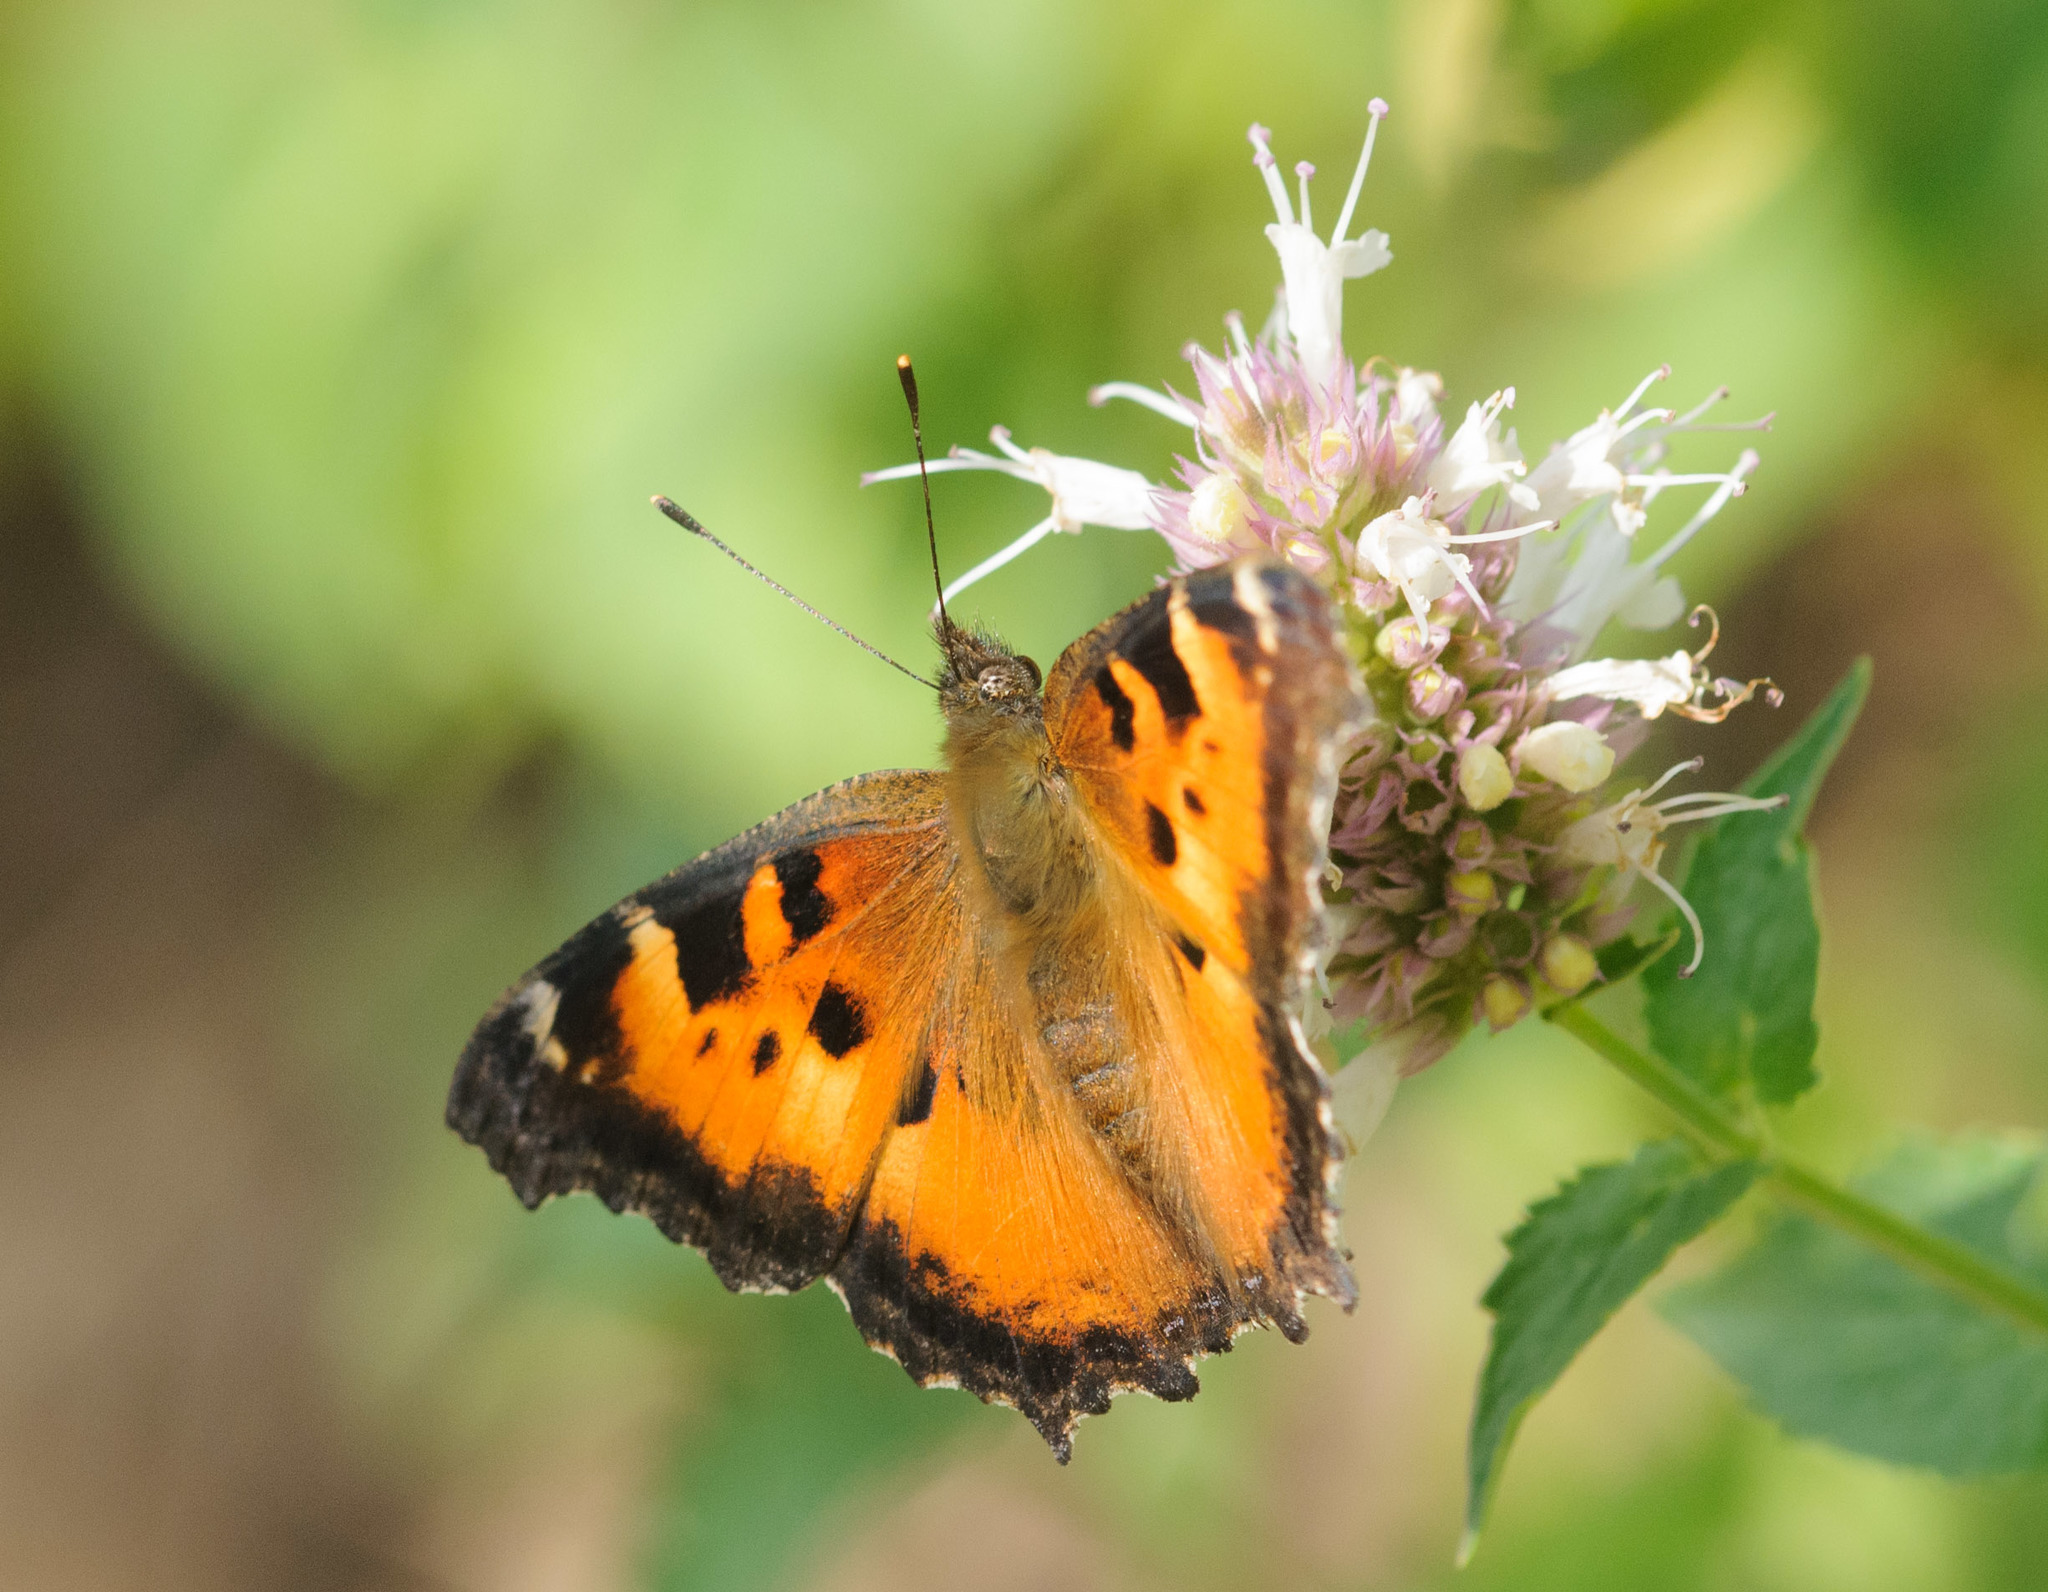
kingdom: Animalia
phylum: Arthropoda
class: Insecta
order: Lepidoptera
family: Nymphalidae
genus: Nymphalis
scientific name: Nymphalis californica
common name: California tortoiseshell
